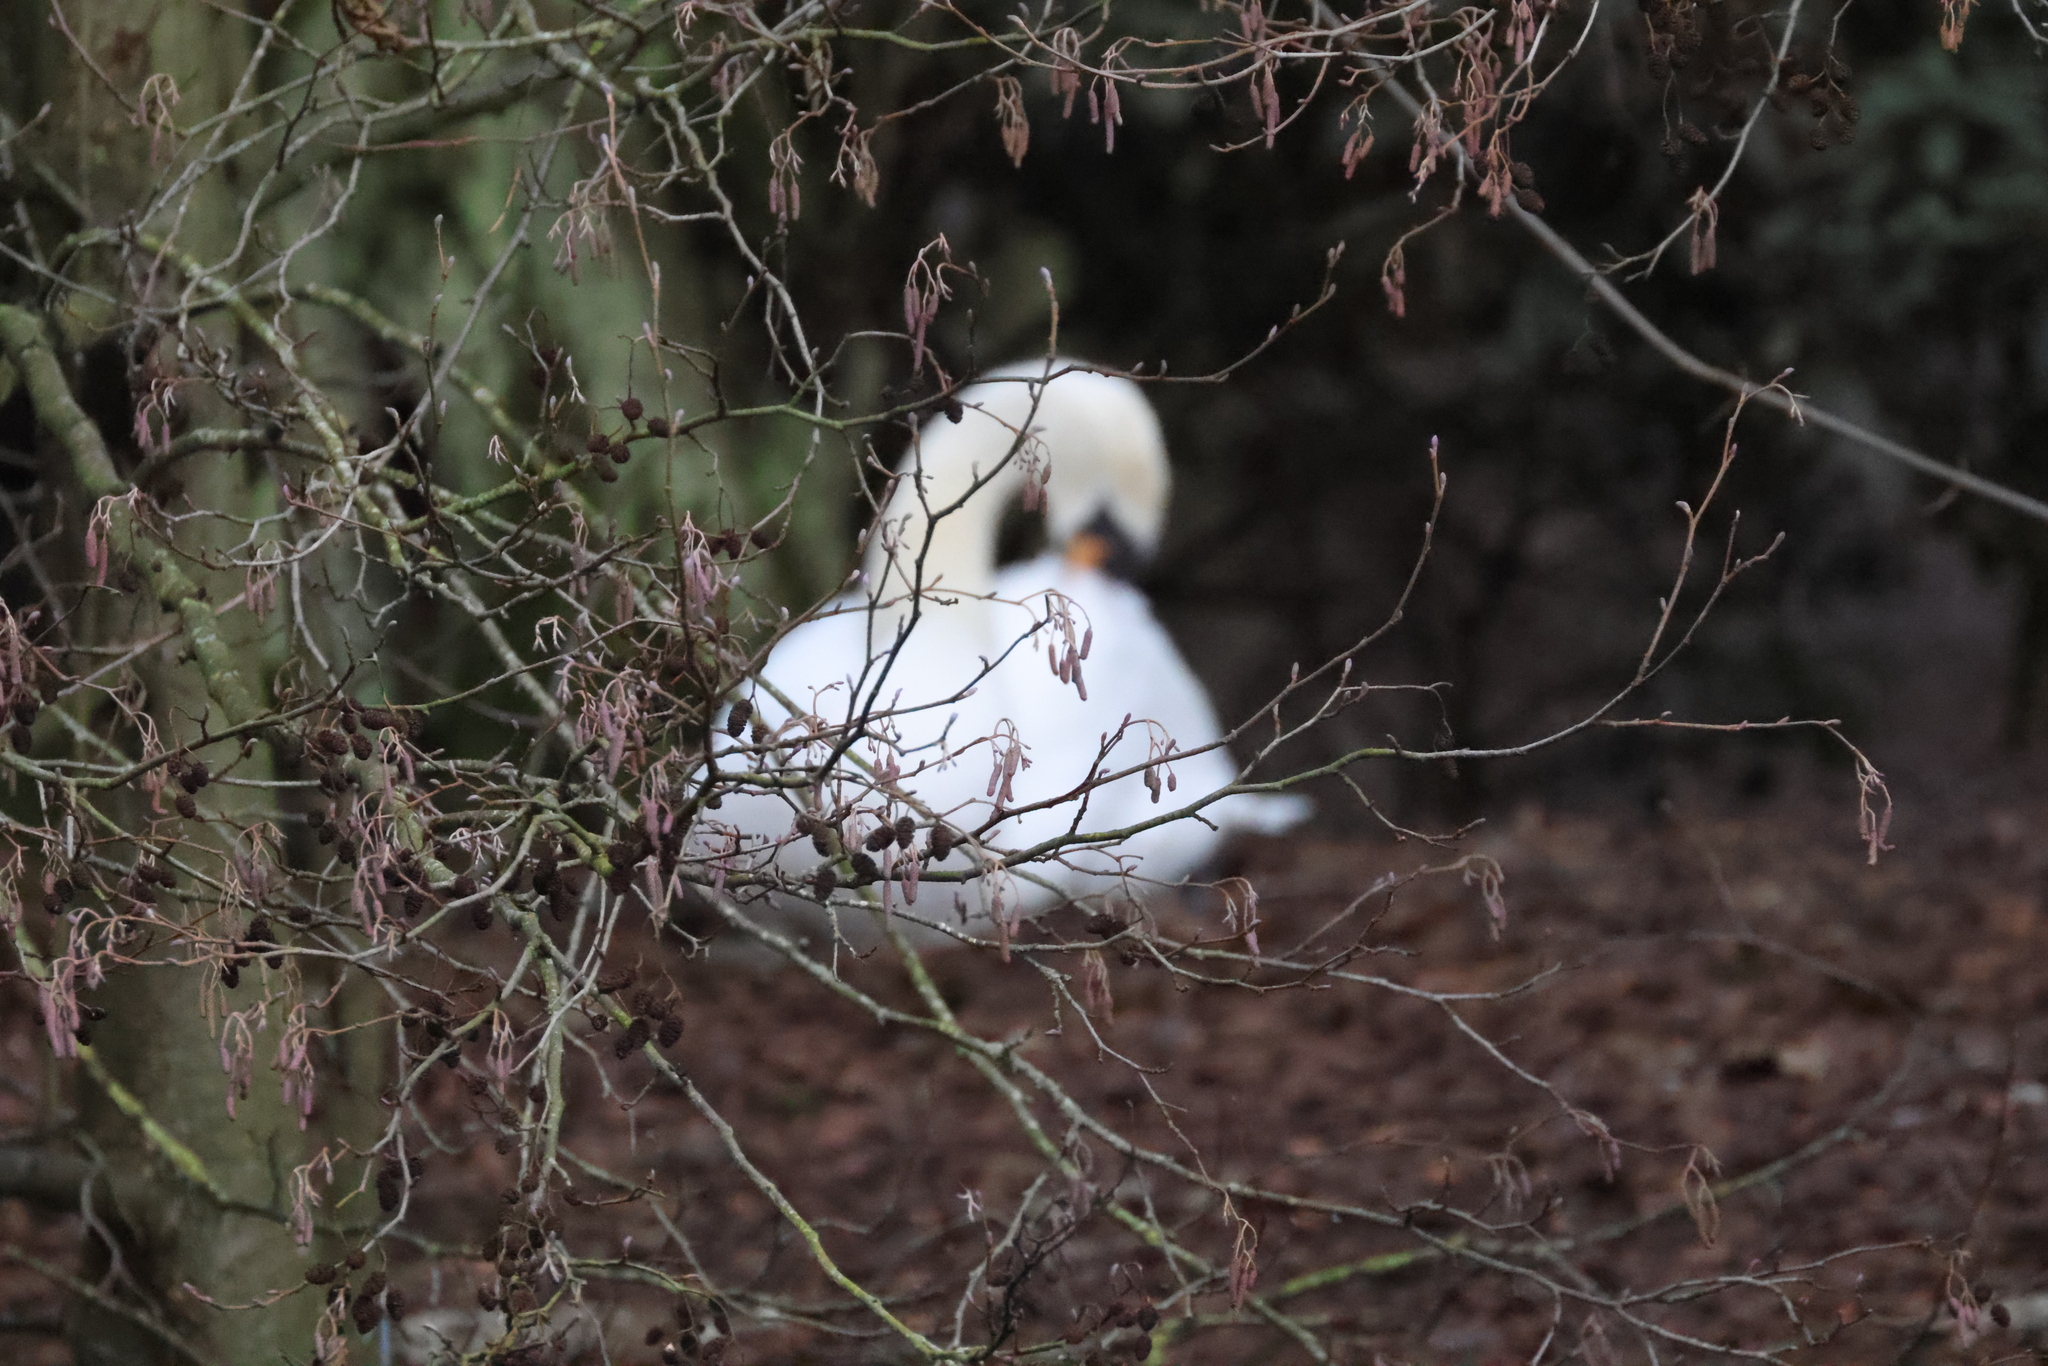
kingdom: Animalia
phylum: Chordata
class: Aves
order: Anseriformes
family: Anatidae
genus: Cygnus
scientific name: Cygnus olor
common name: Mute swan
